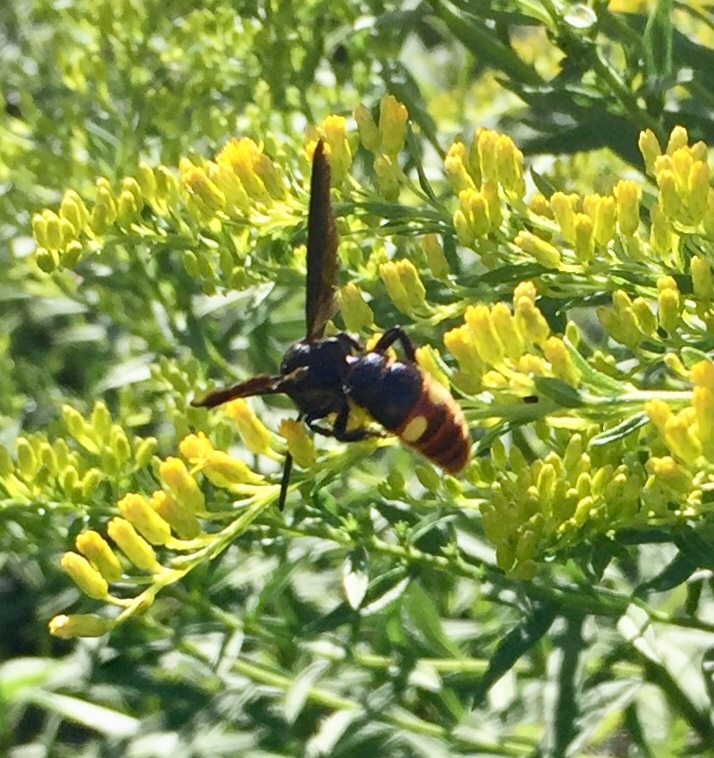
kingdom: Animalia
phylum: Arthropoda
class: Insecta
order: Hymenoptera
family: Scoliidae
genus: Scolia
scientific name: Scolia dubia
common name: Blue-winged scoliid wasp
